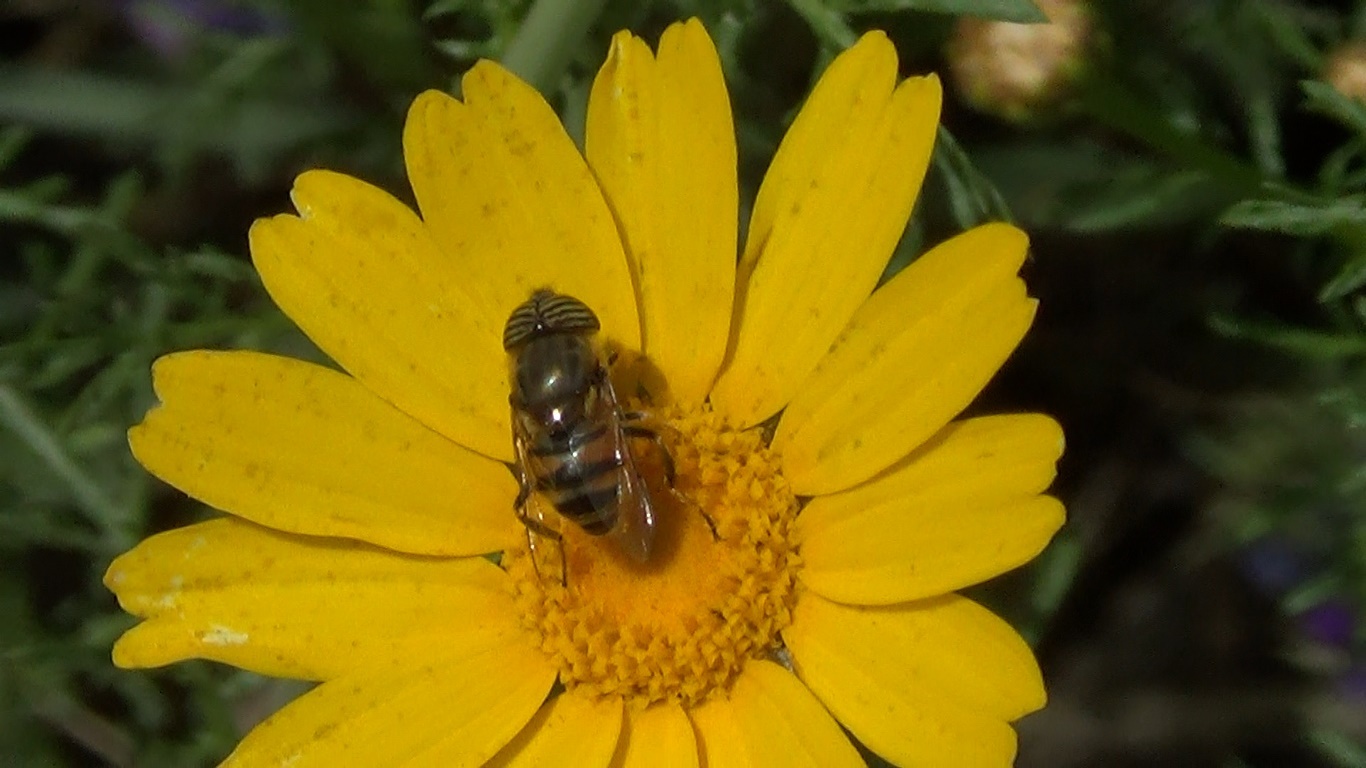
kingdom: Animalia
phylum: Arthropoda
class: Insecta
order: Diptera
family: Syrphidae
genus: Eristalinus
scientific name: Eristalinus taeniops
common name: Syrphid fly
